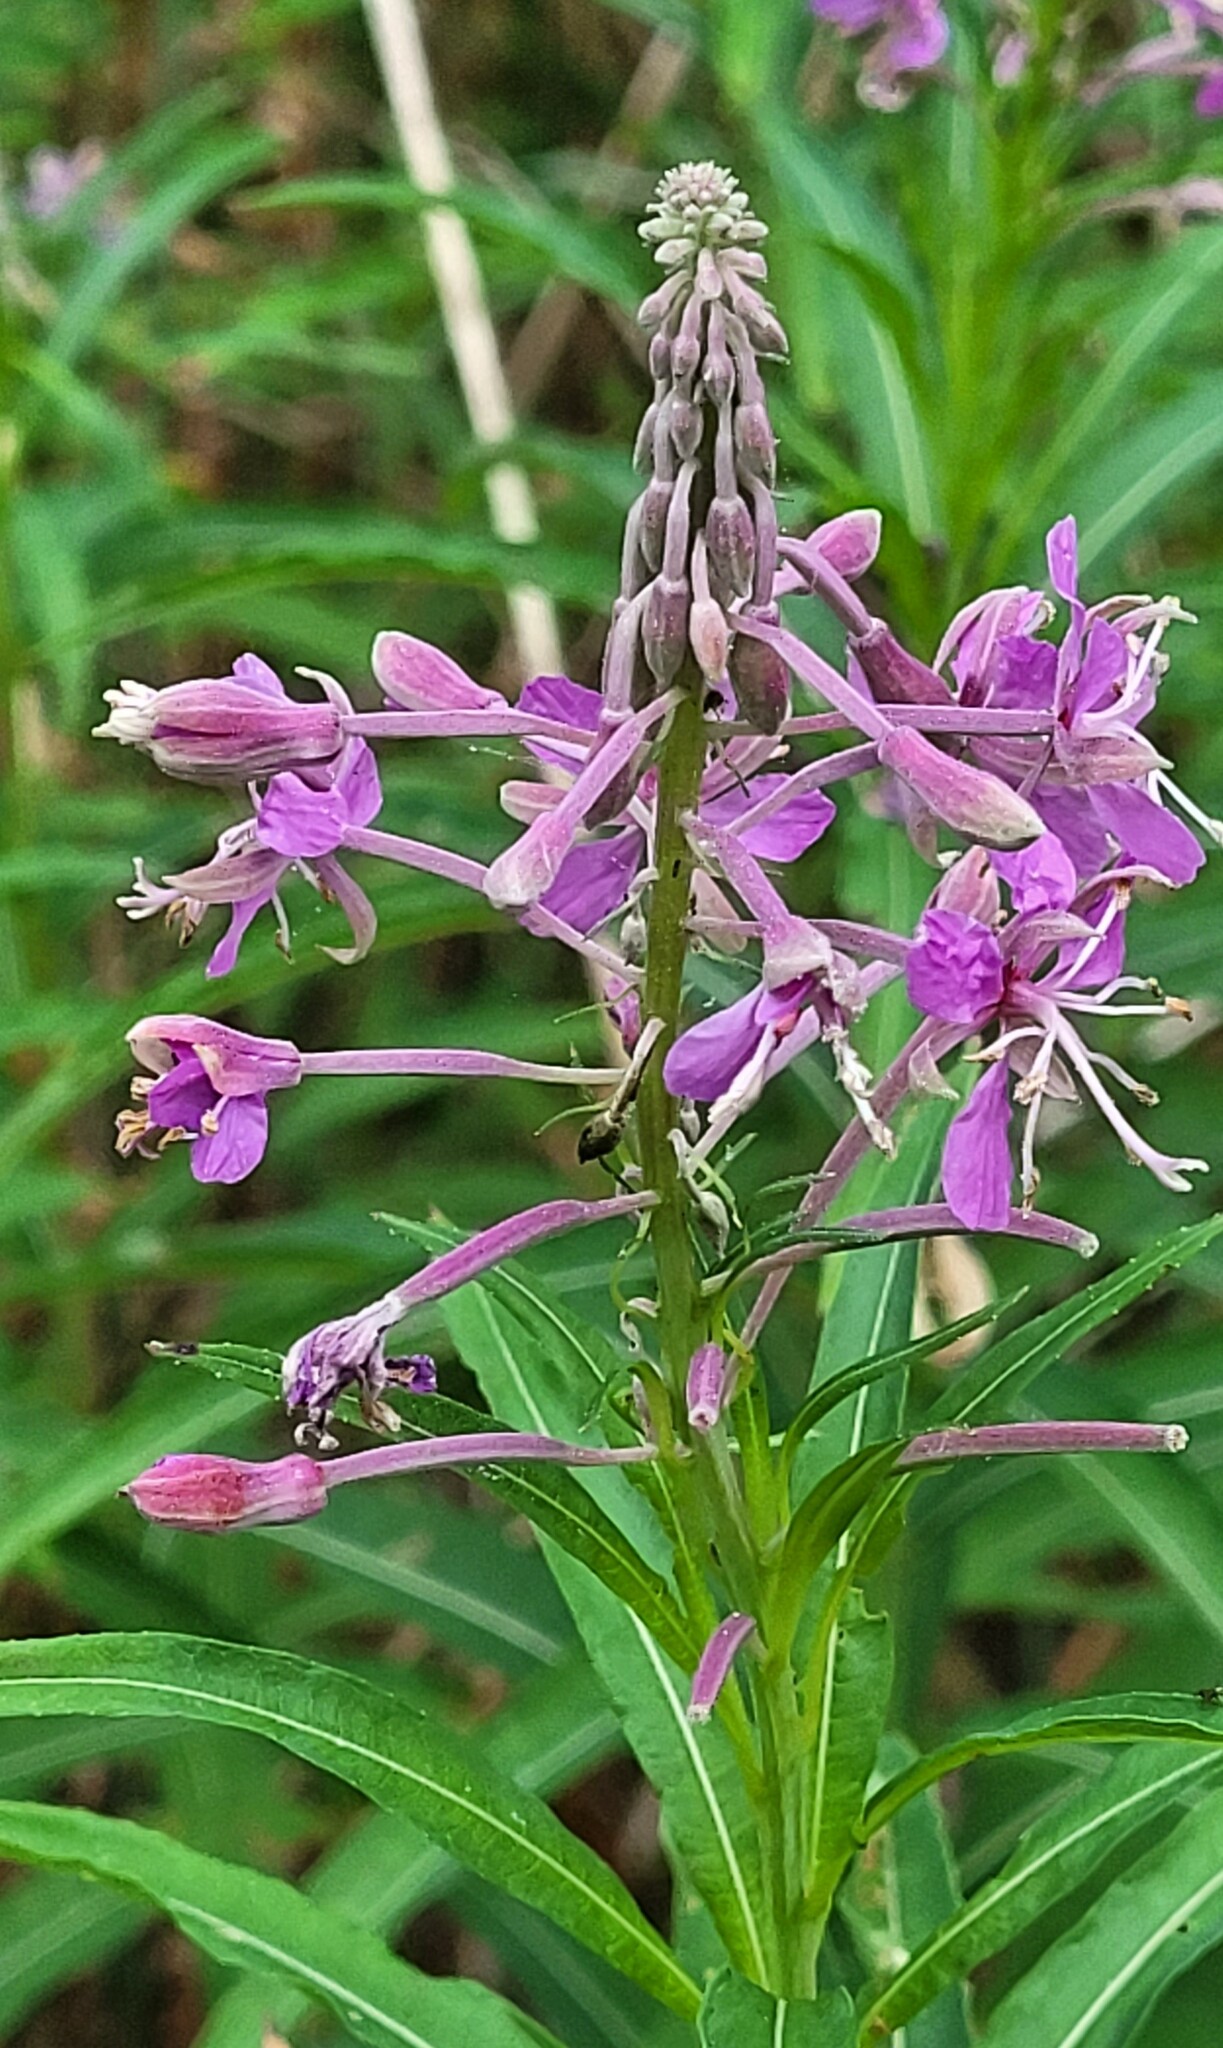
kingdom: Plantae
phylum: Tracheophyta
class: Magnoliopsida
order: Myrtales
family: Onagraceae
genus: Chamaenerion
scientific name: Chamaenerion angustifolium
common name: Fireweed
